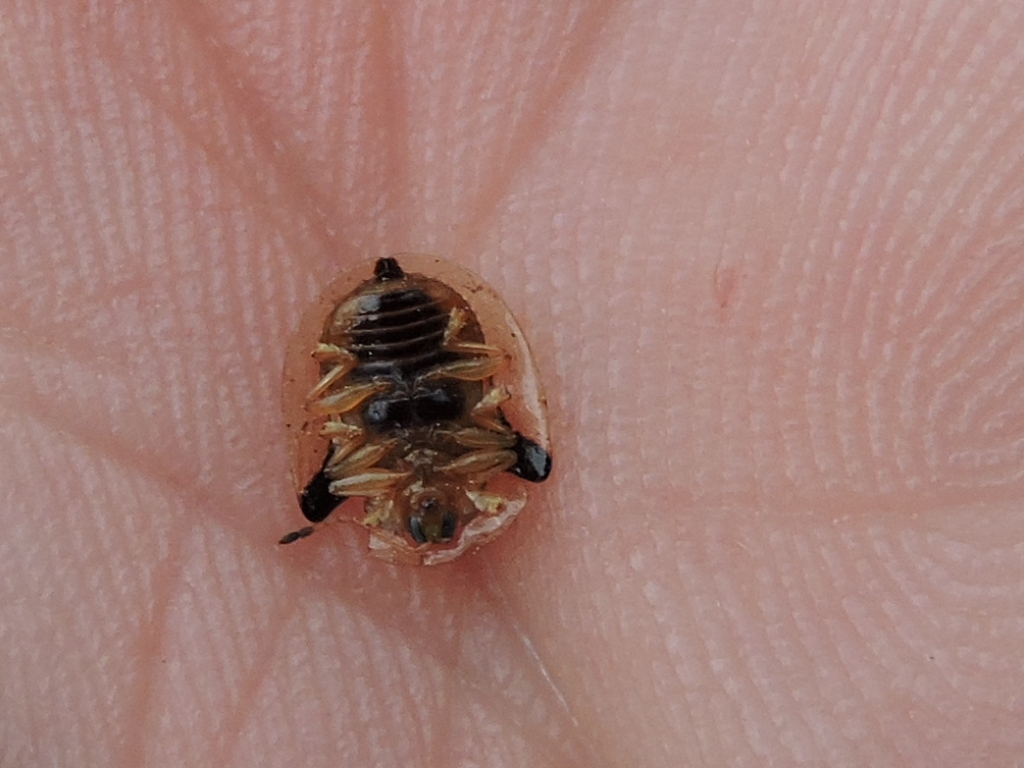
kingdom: Animalia
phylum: Arthropoda
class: Insecta
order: Coleoptera
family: Chrysomelidae
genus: Deloyala
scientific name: Deloyala guttata
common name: Mottled tortoise beetle
